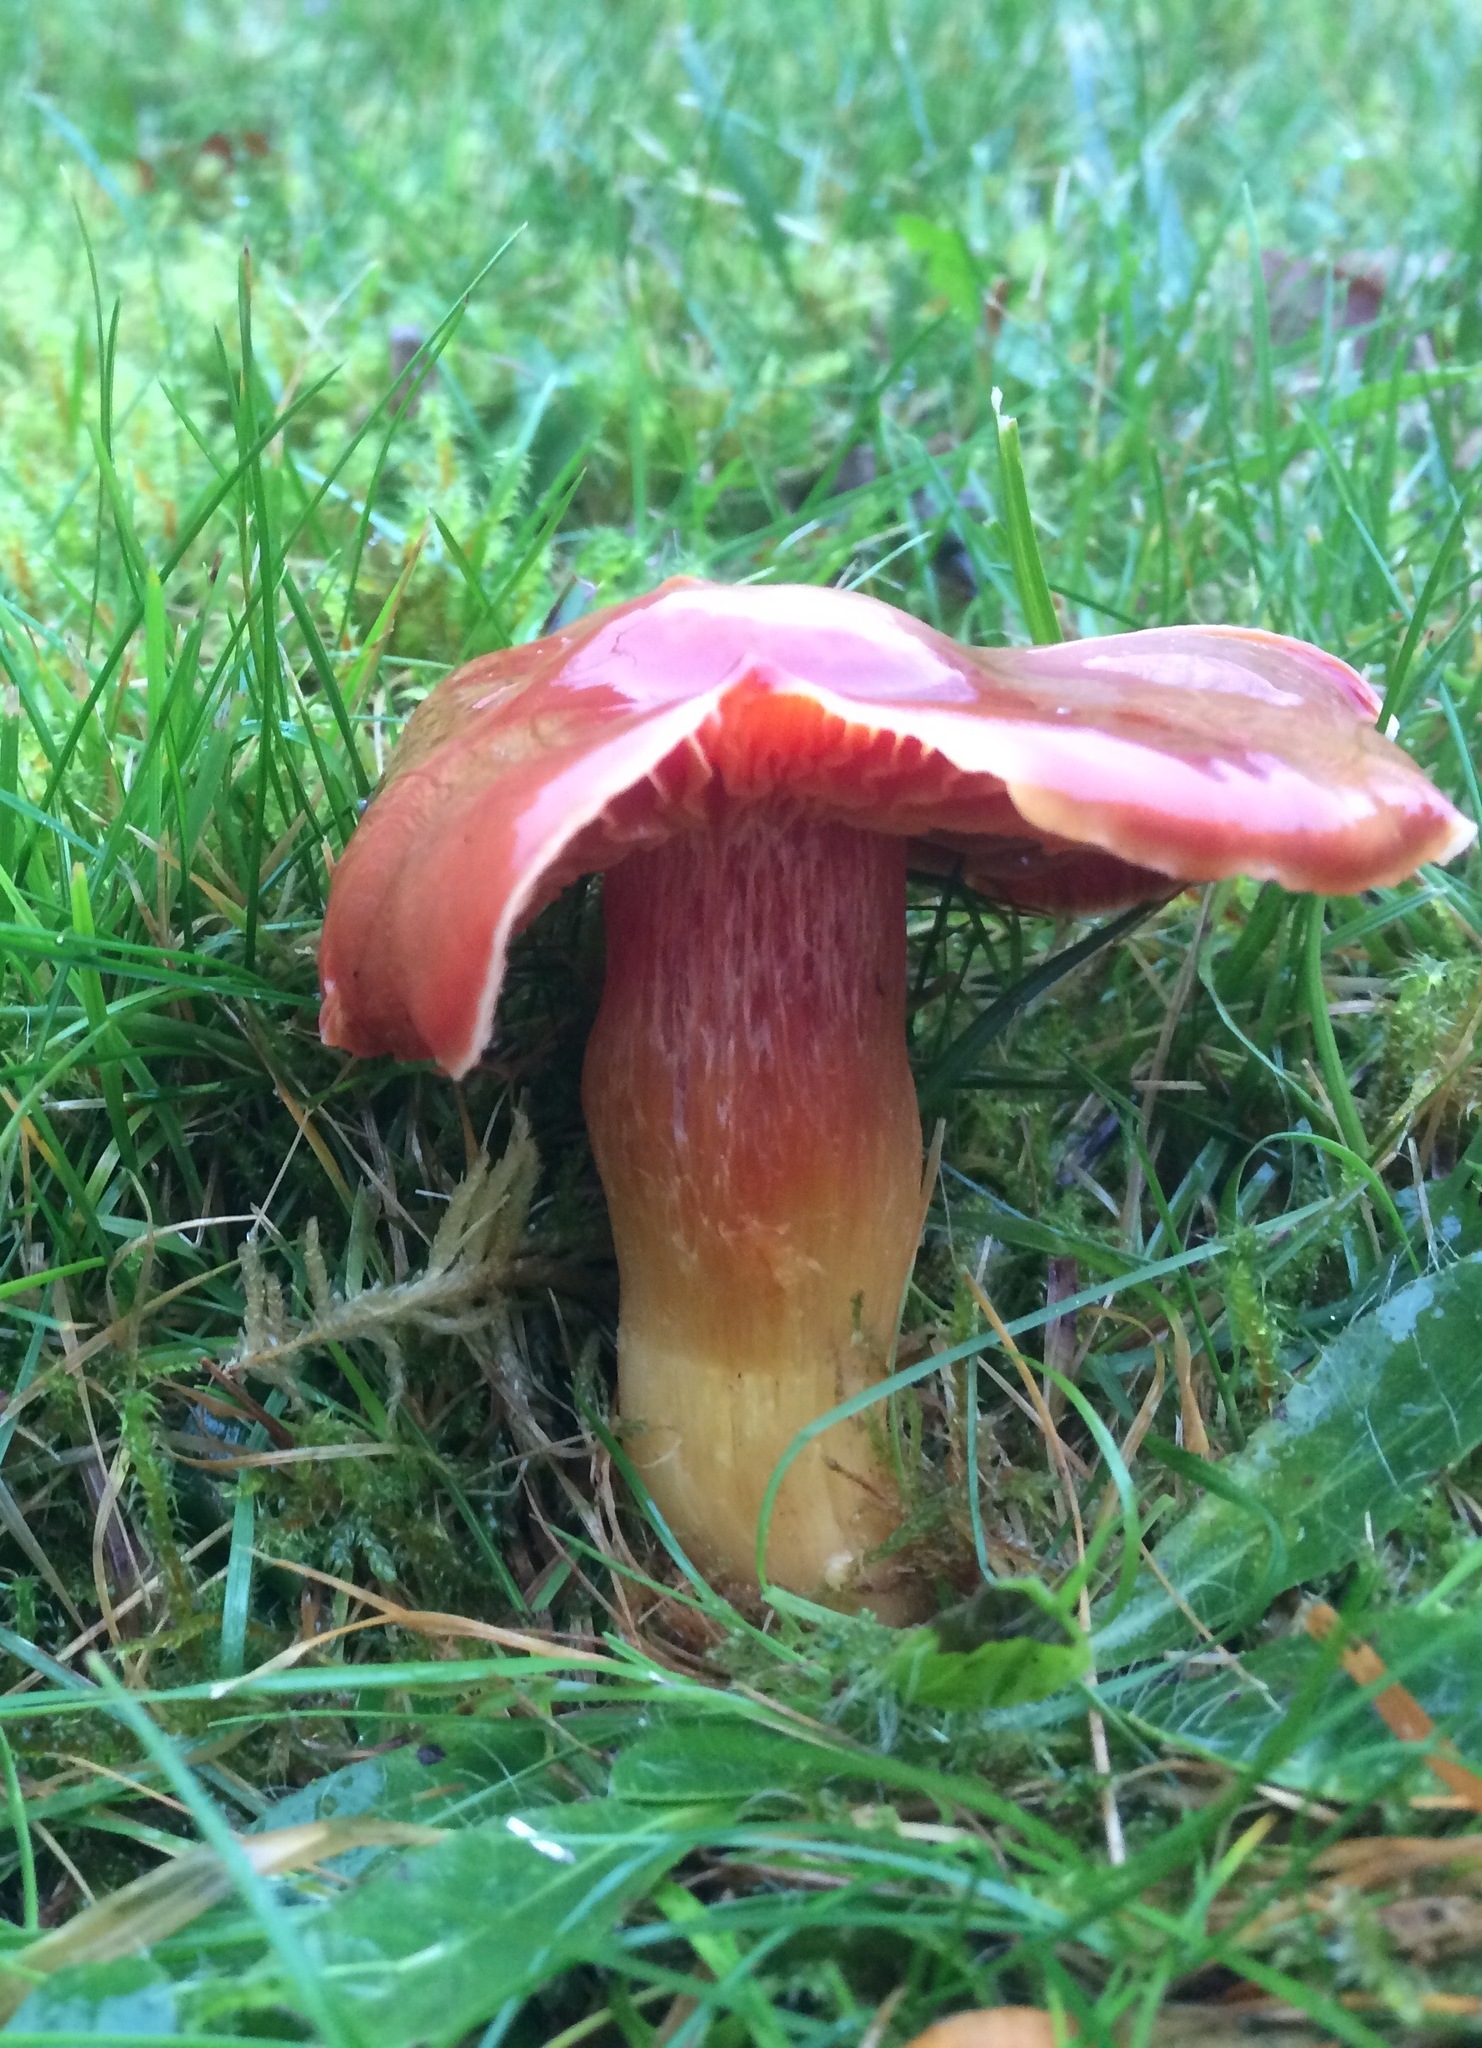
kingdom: Fungi
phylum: Basidiomycota
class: Agaricomycetes
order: Agaricales
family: Hygrophoraceae
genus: Hygrocybe
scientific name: Hygrocybe punicea
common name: Crimson waxcap
